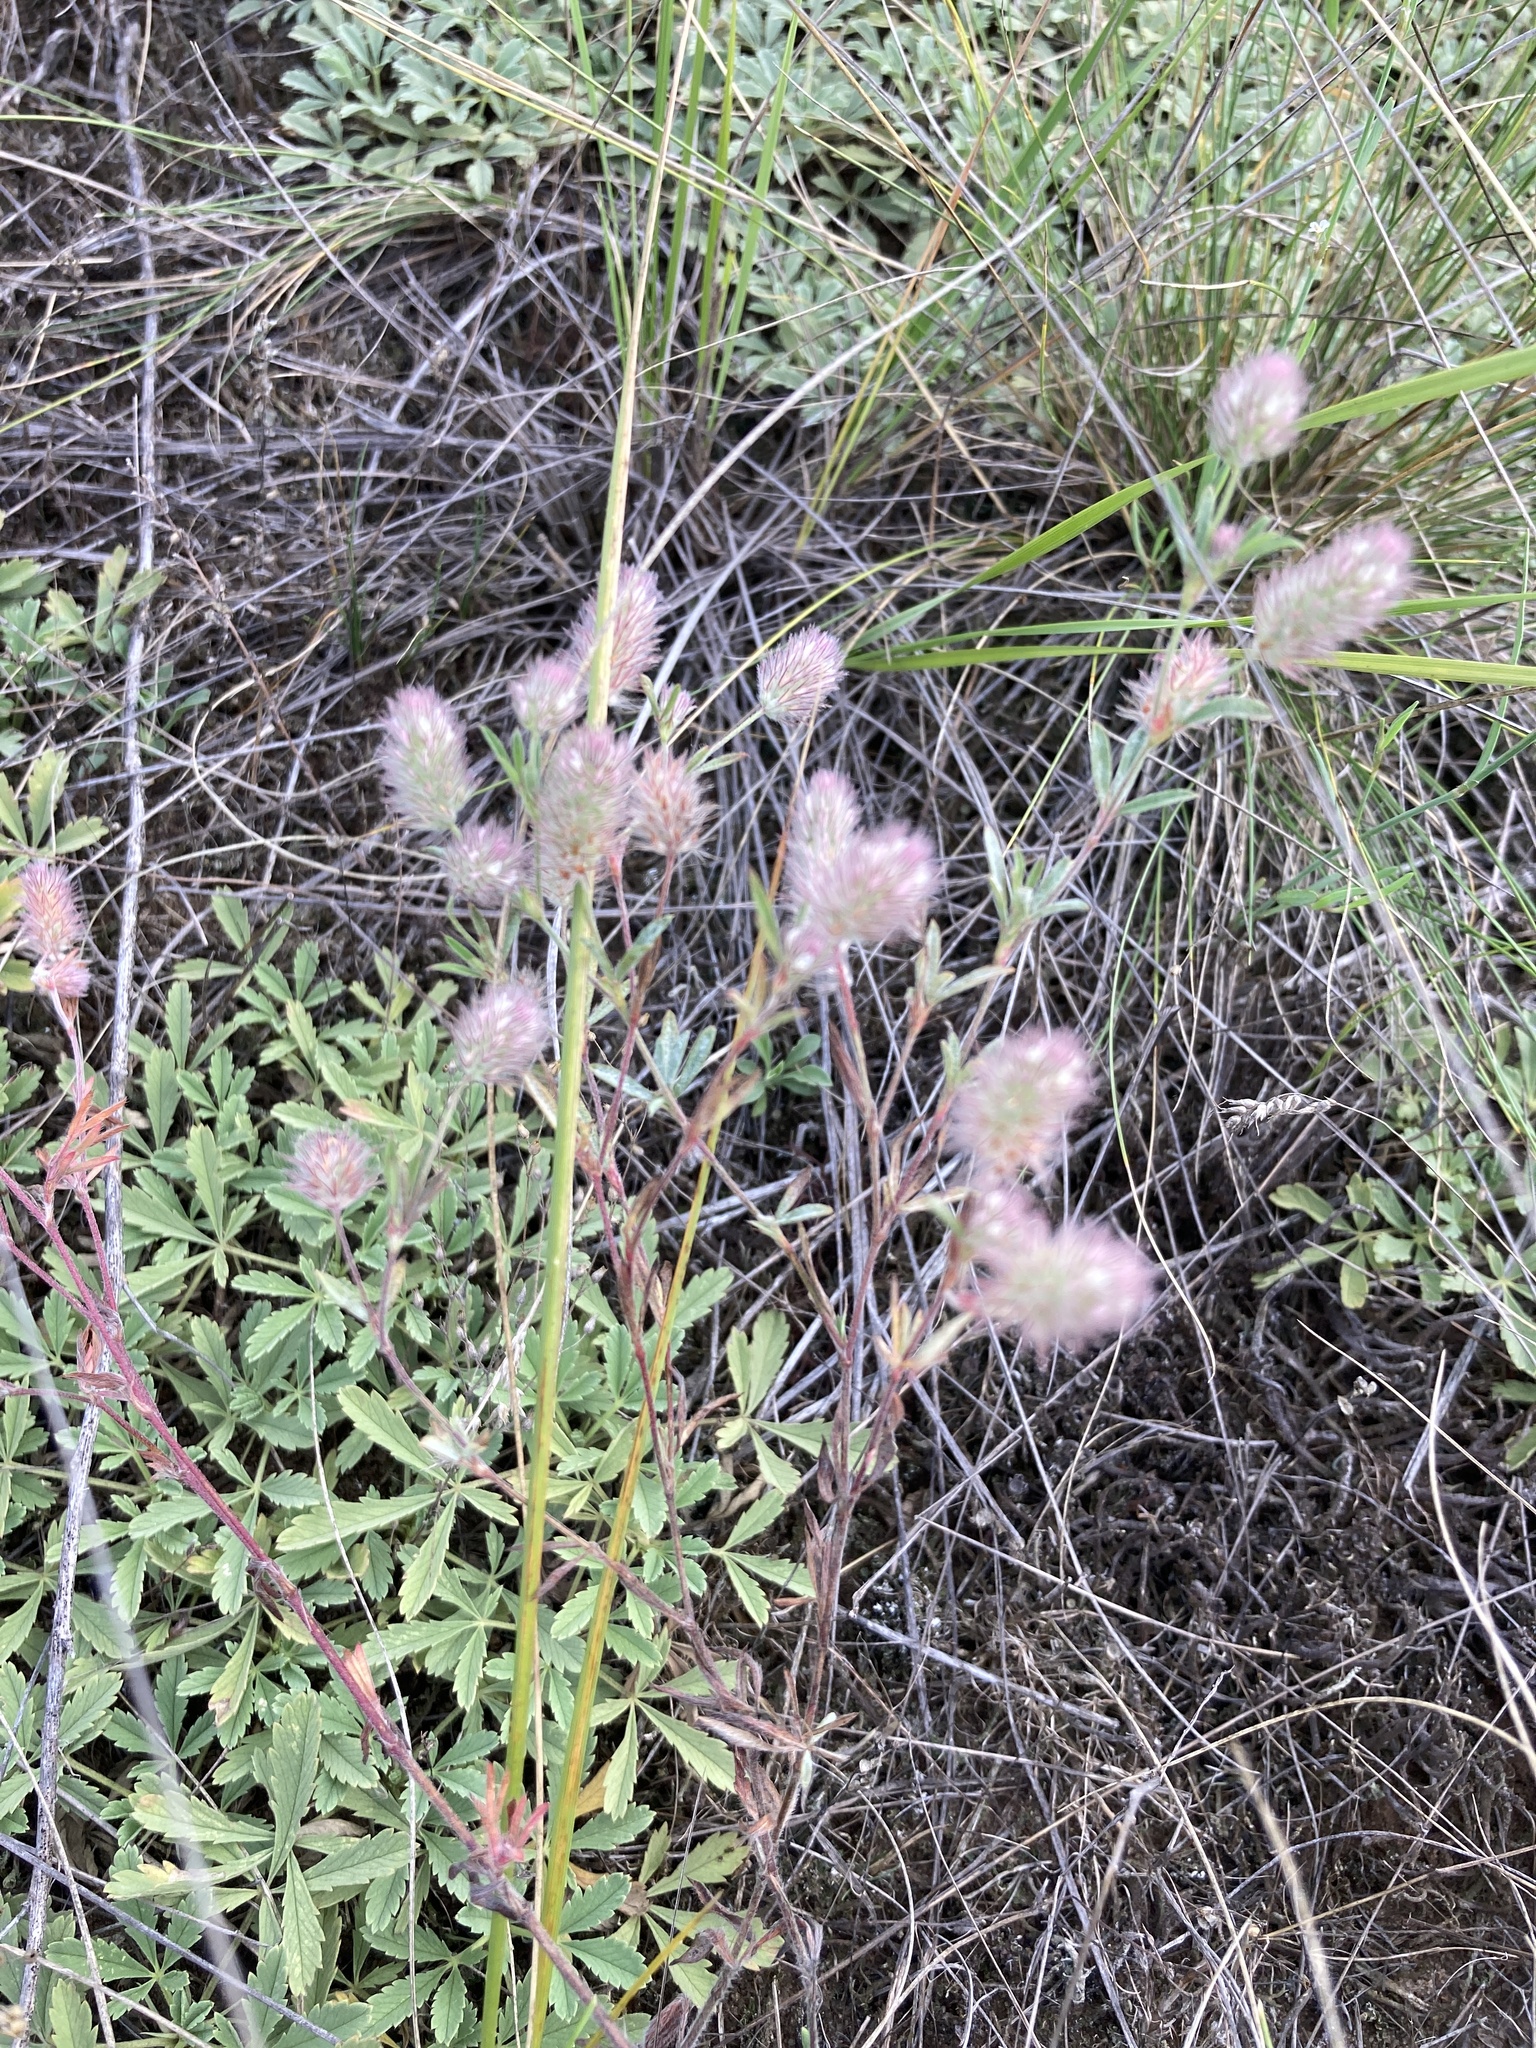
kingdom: Plantae
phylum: Tracheophyta
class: Magnoliopsida
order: Fabales
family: Fabaceae
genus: Trifolium
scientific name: Trifolium arvense
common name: Hare's-foot clover
